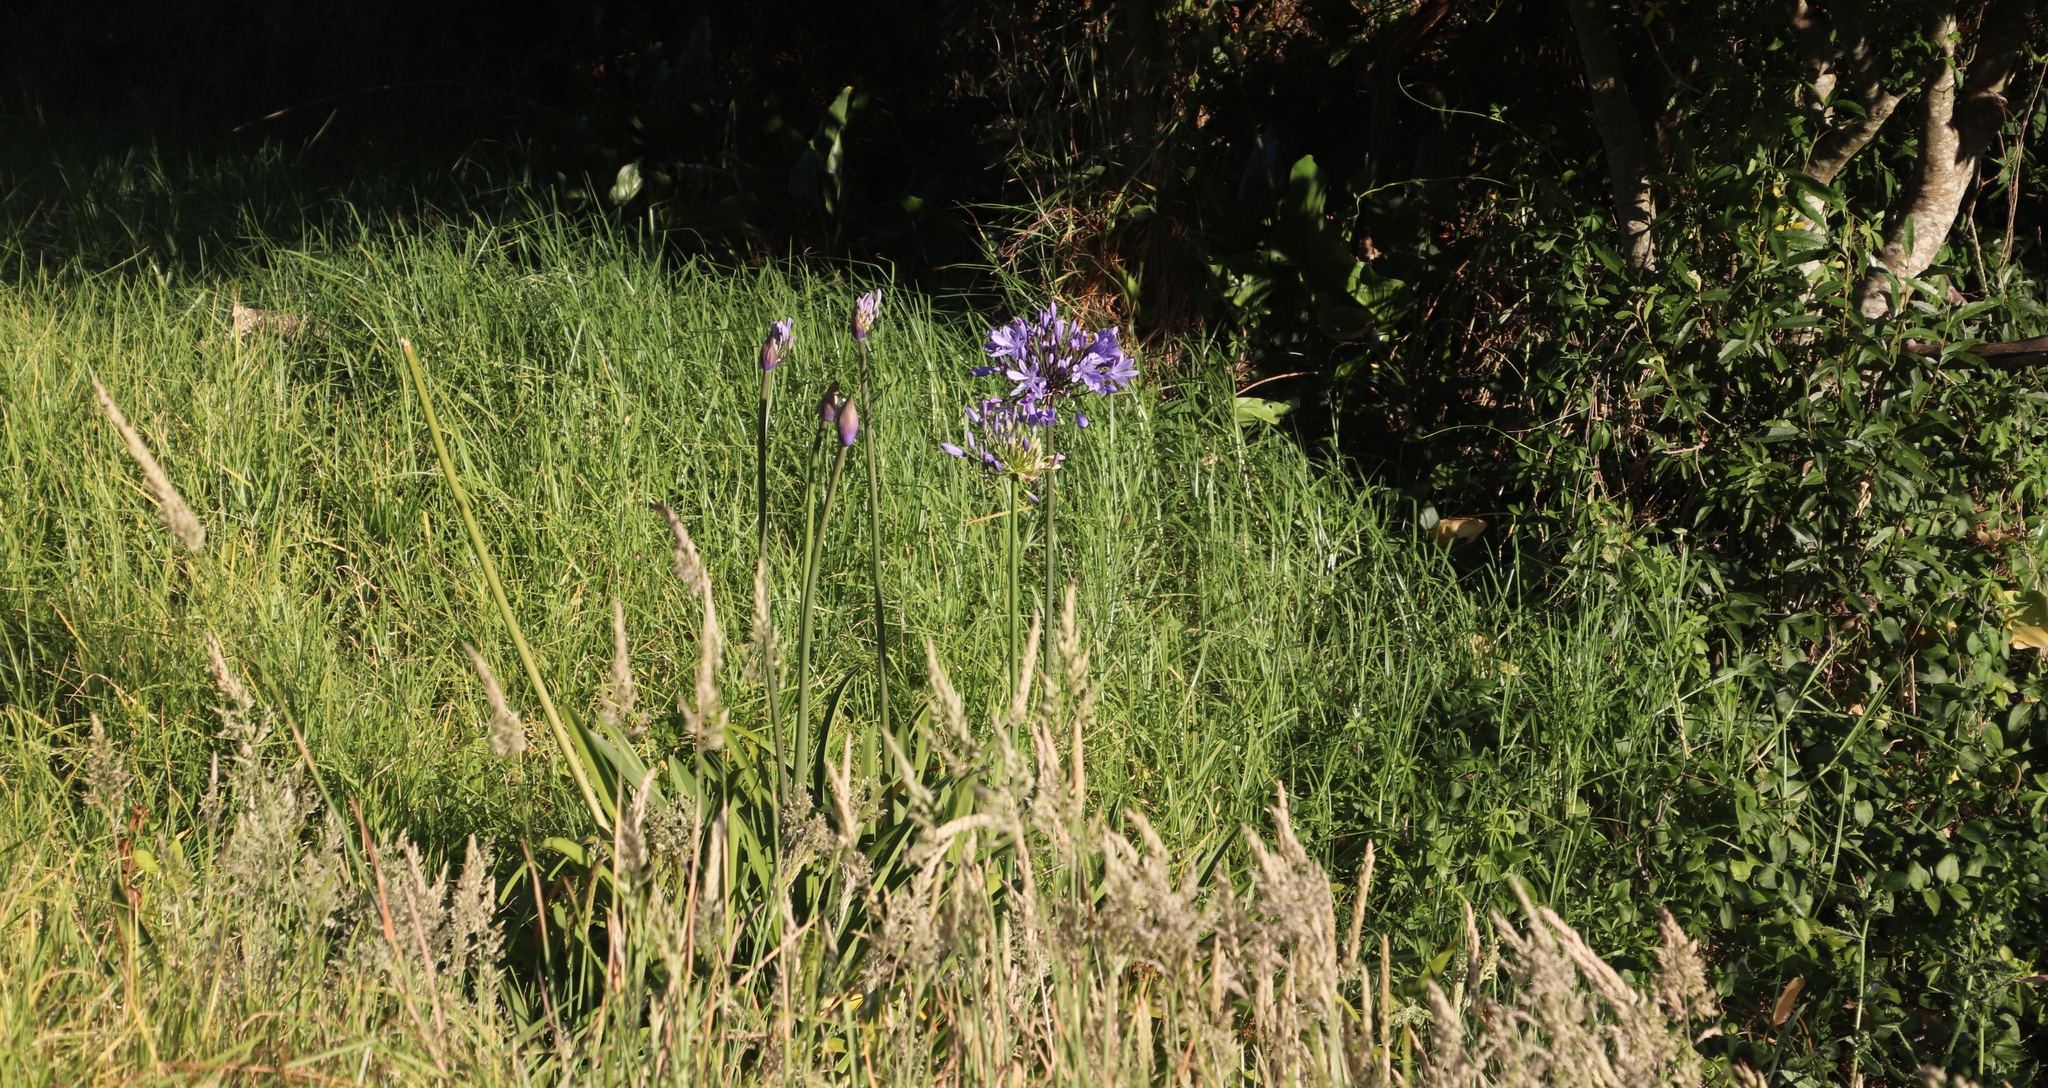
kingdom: Plantae
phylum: Tracheophyta
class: Liliopsida
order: Asparagales
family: Amaryllidaceae
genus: Agapanthus
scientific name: Agapanthus praecox
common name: African-lily
